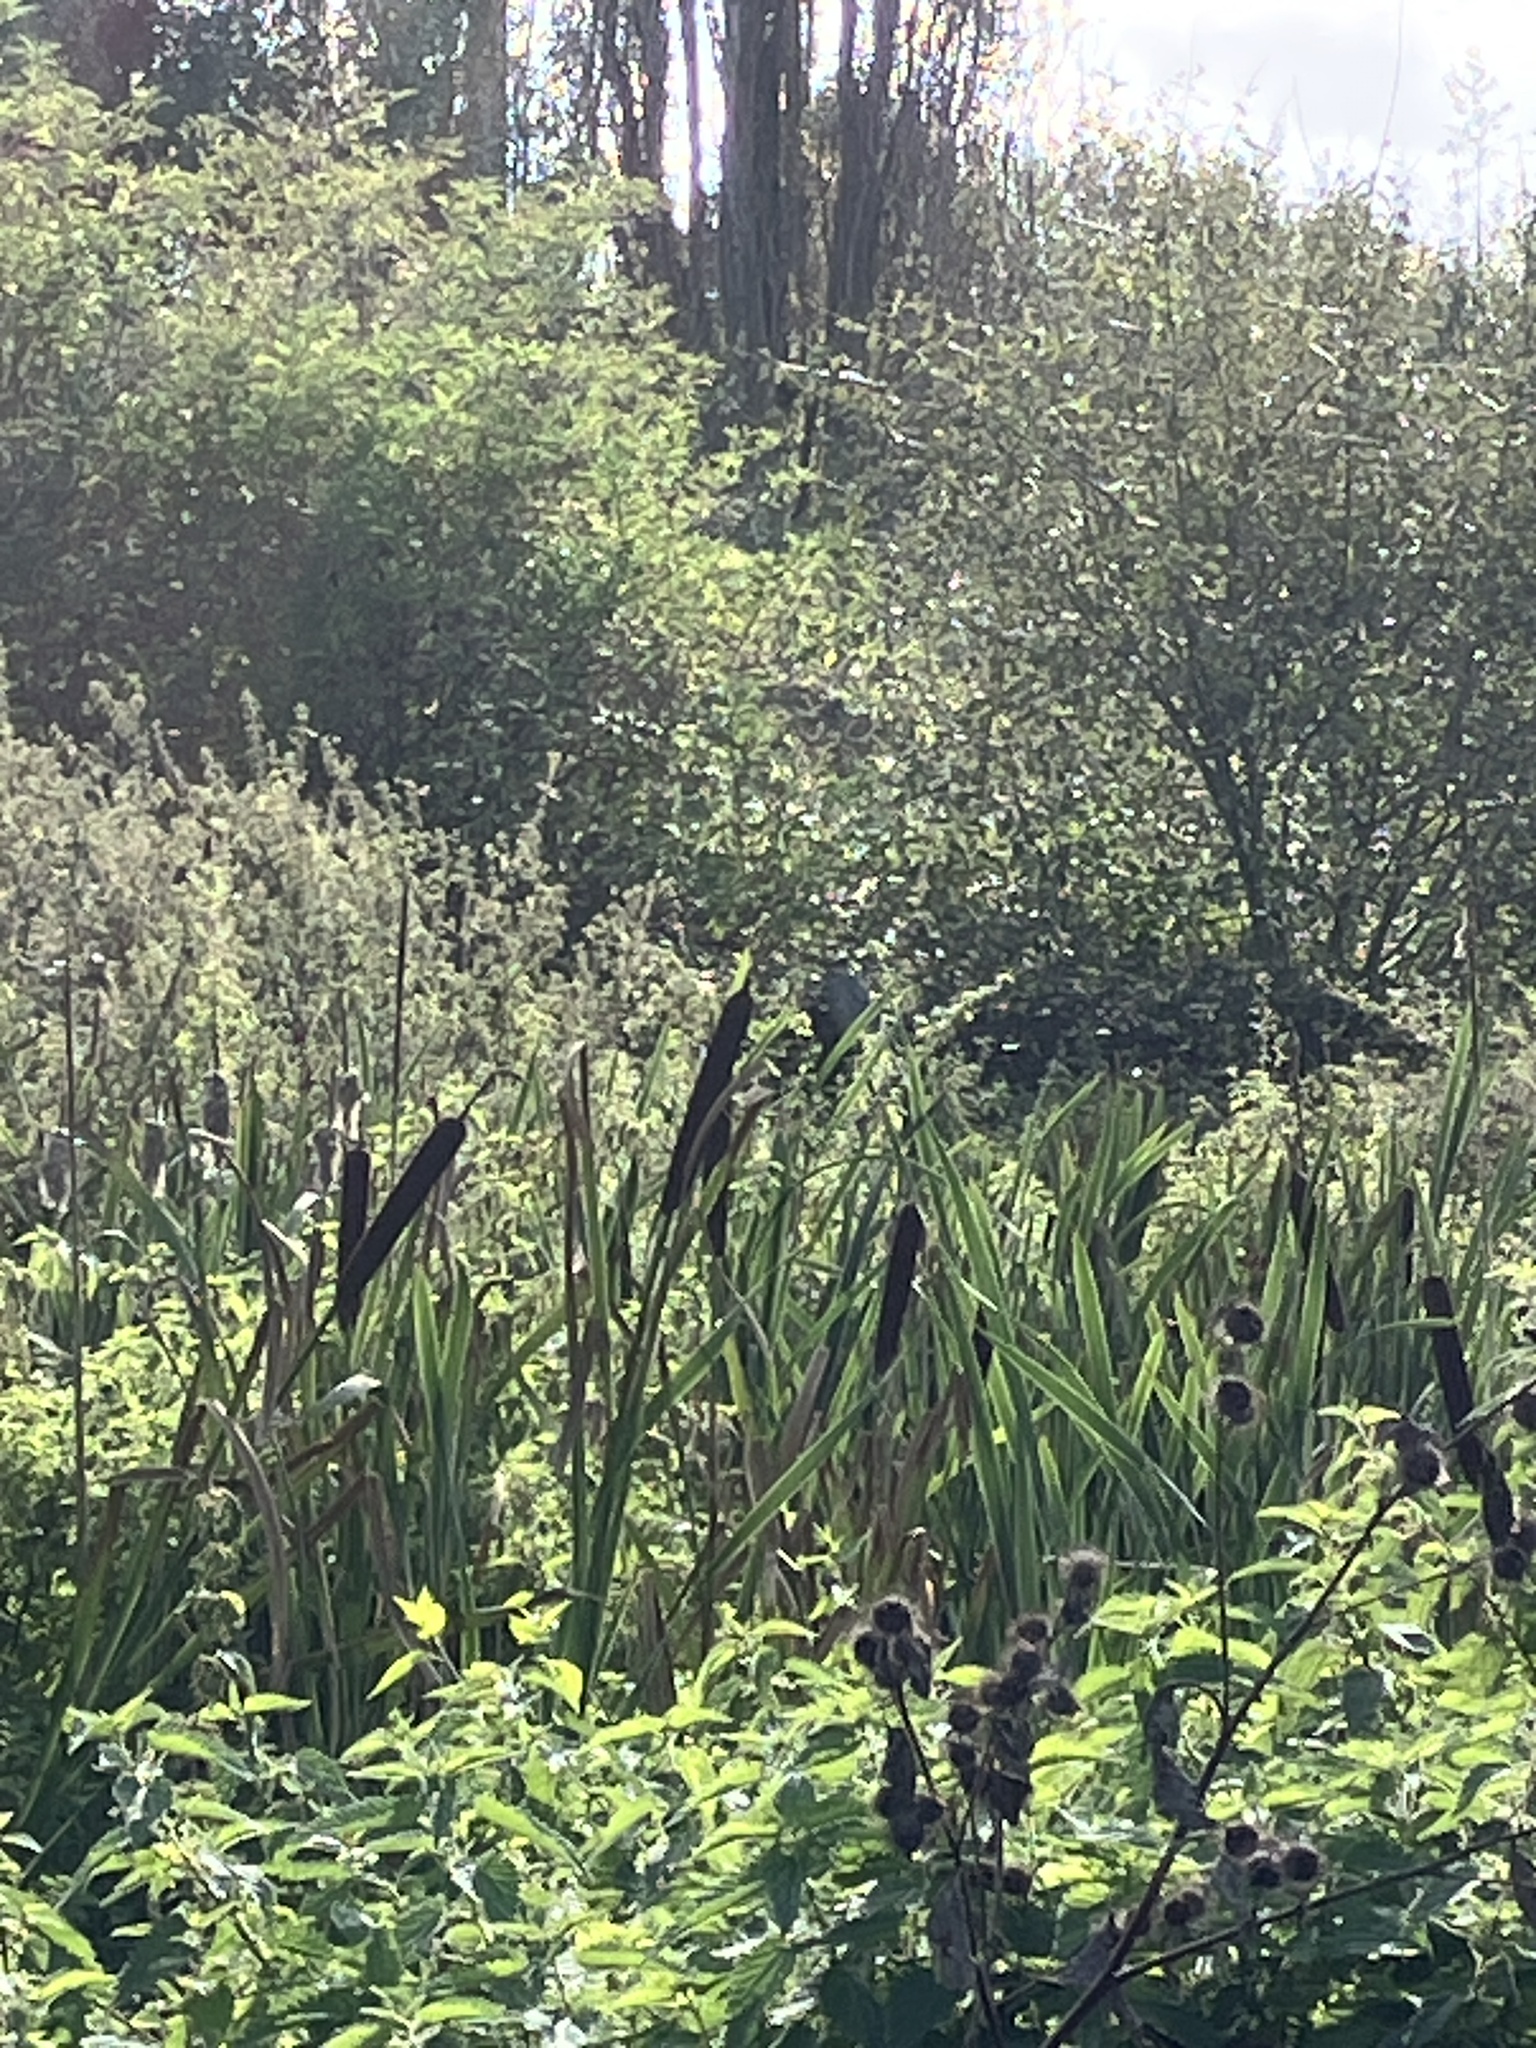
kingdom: Plantae
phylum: Tracheophyta
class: Liliopsida
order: Poales
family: Typhaceae
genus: Typha
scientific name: Typha latifolia
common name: Broadleaf cattail
